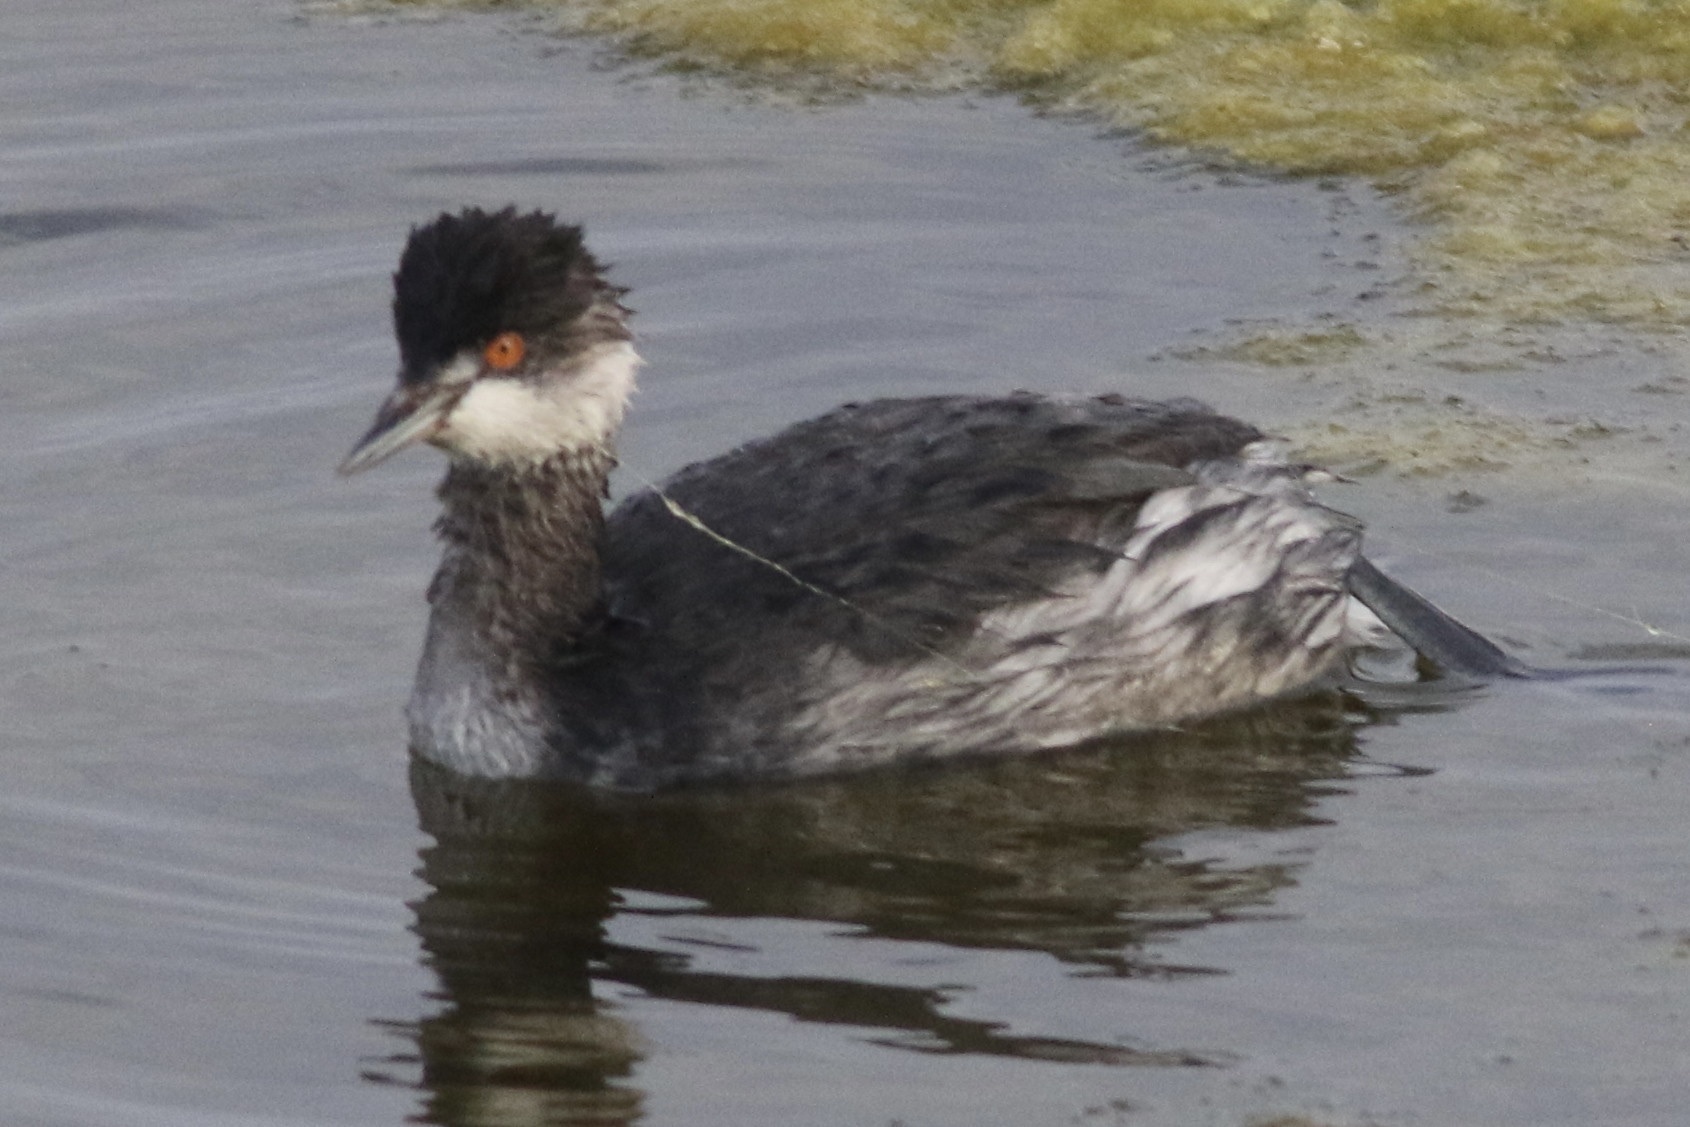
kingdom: Animalia
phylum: Chordata
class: Aves
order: Podicipediformes
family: Podicipedidae
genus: Podiceps
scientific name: Podiceps nigricollis
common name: Black-necked grebe
